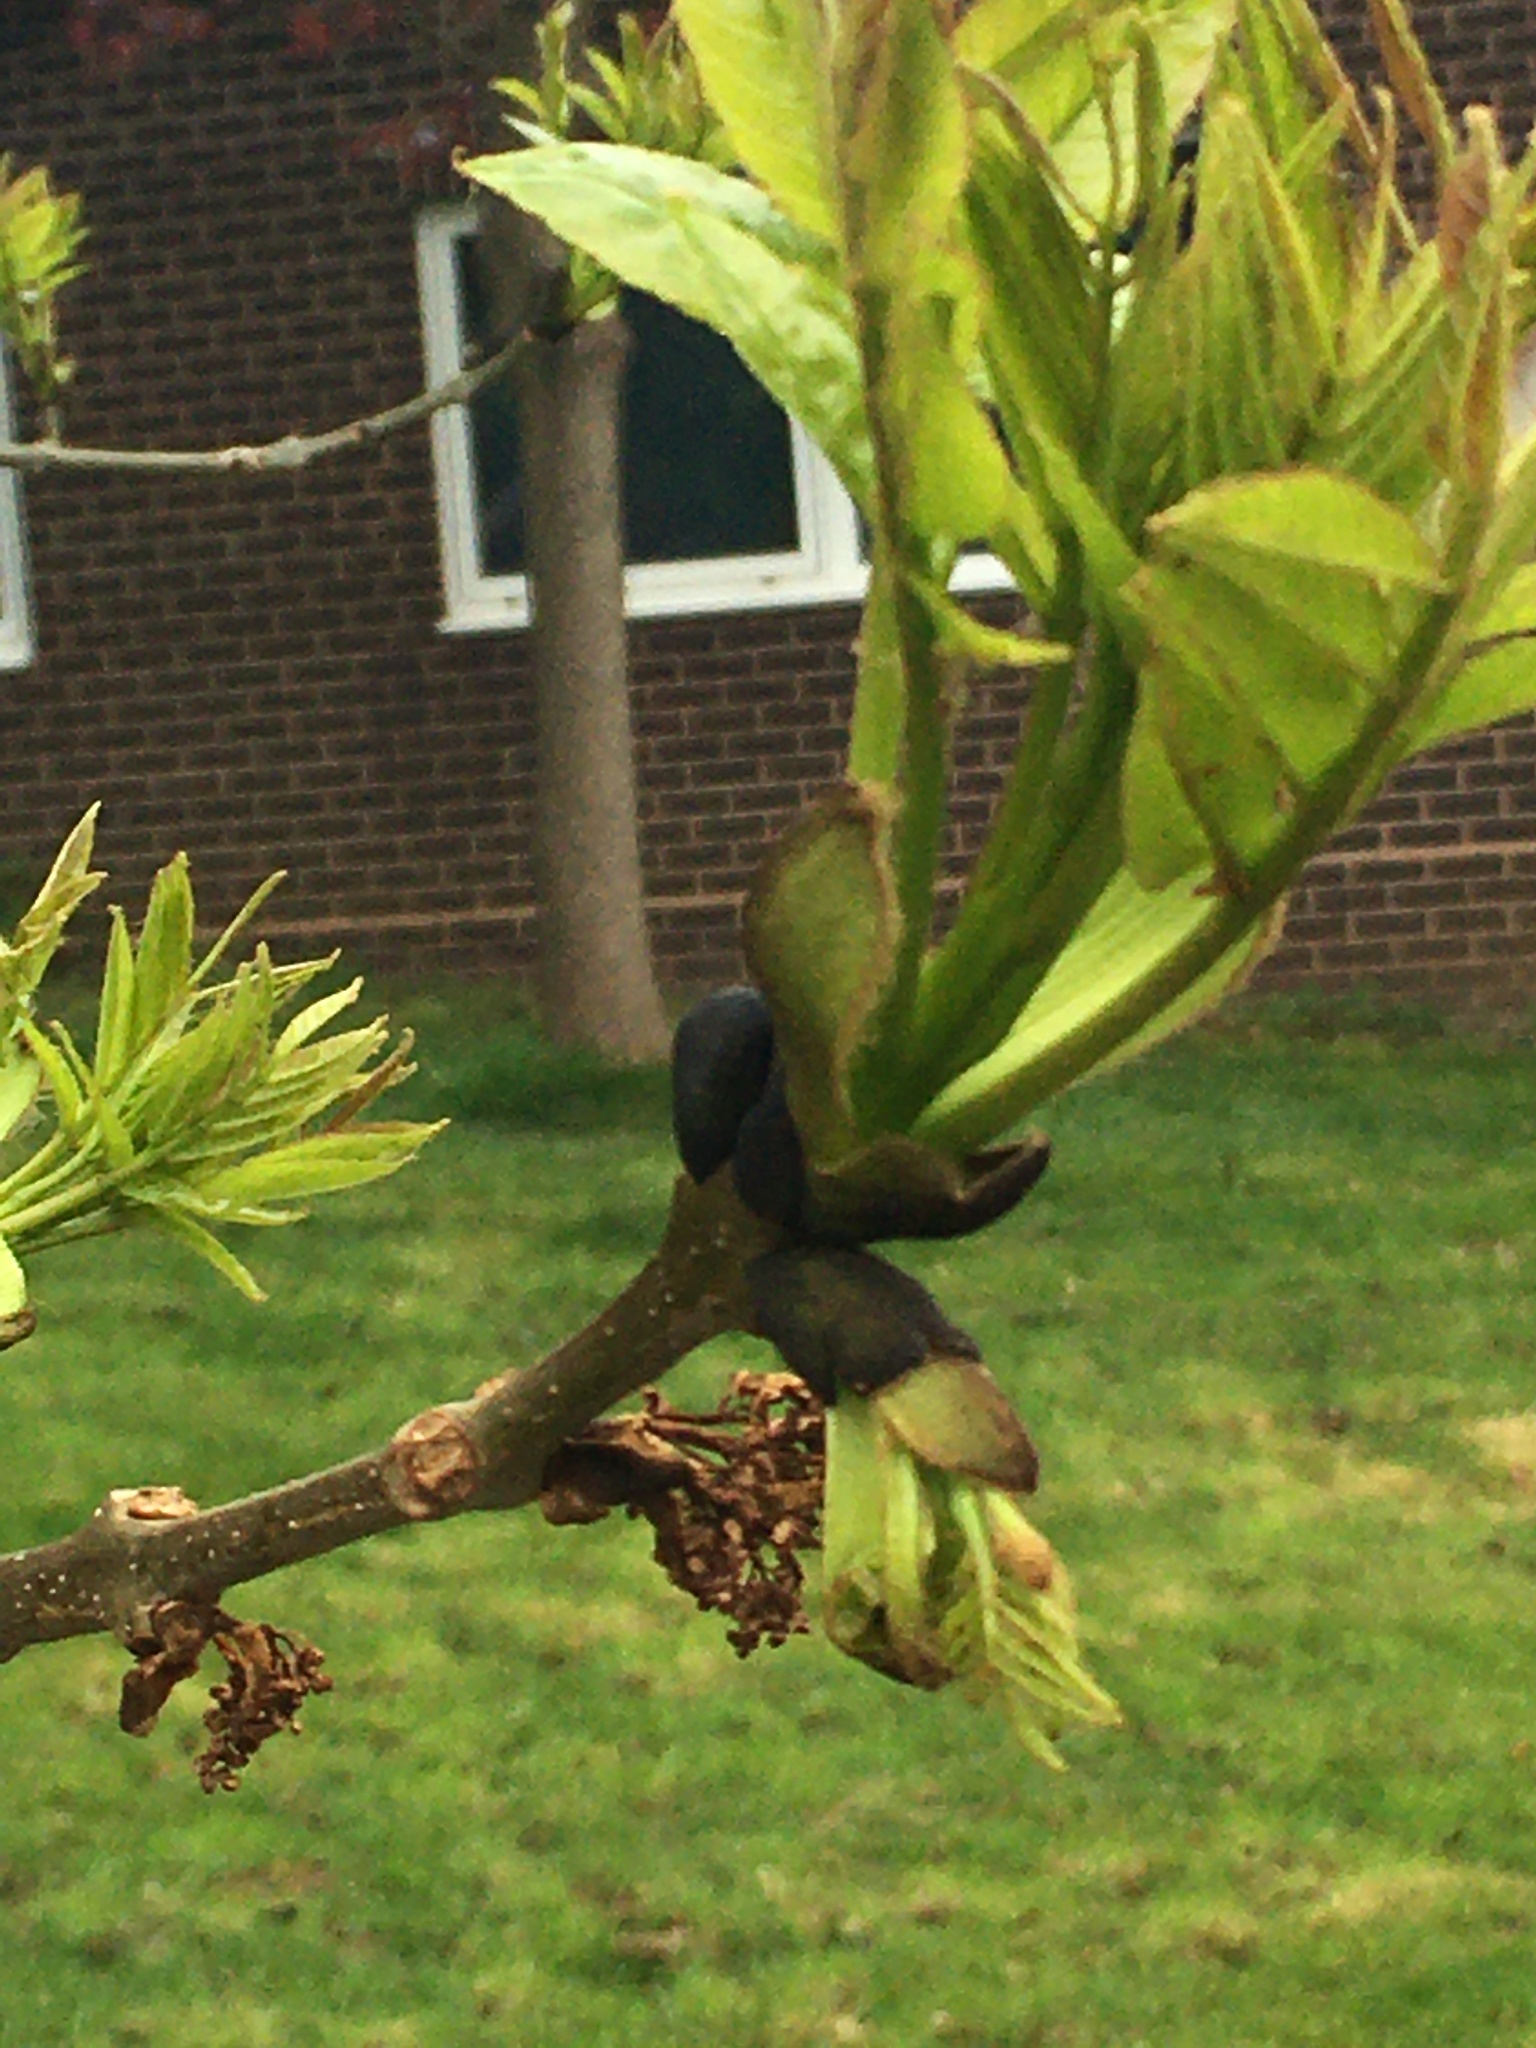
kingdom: Plantae
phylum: Tracheophyta
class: Magnoliopsida
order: Lamiales
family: Oleaceae
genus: Fraxinus
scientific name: Fraxinus excelsior
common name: European ash
